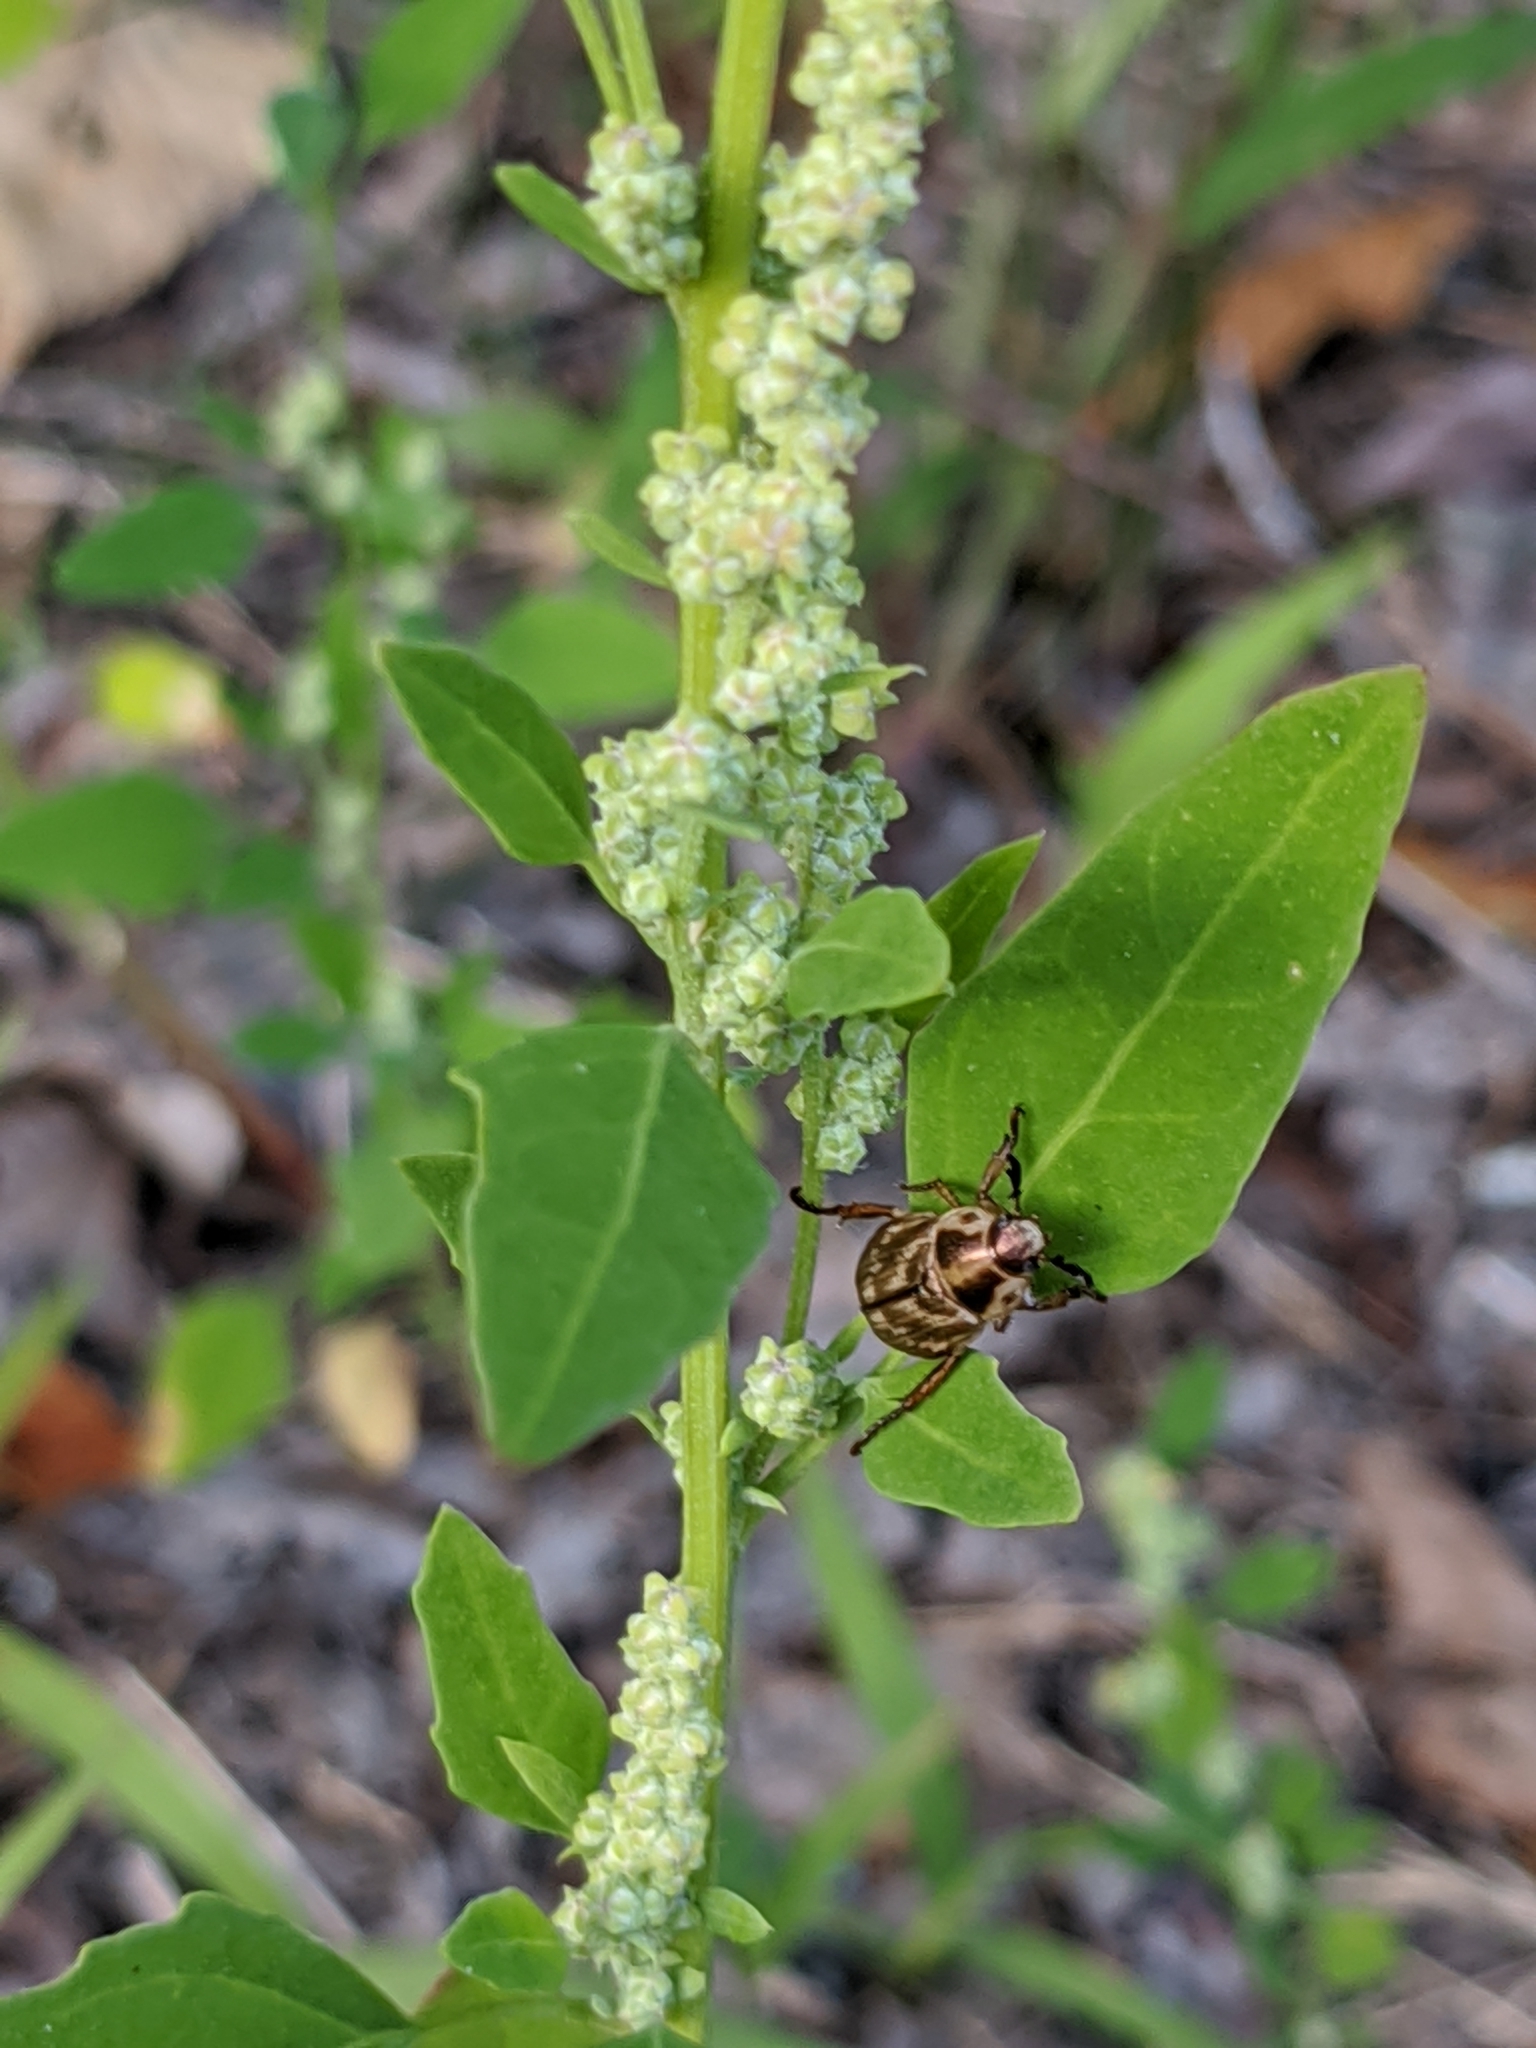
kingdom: Animalia
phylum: Arthropoda
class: Insecta
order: Coleoptera
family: Scarabaeidae
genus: Exomala
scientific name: Exomala orientalis
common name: Oriental beetle
